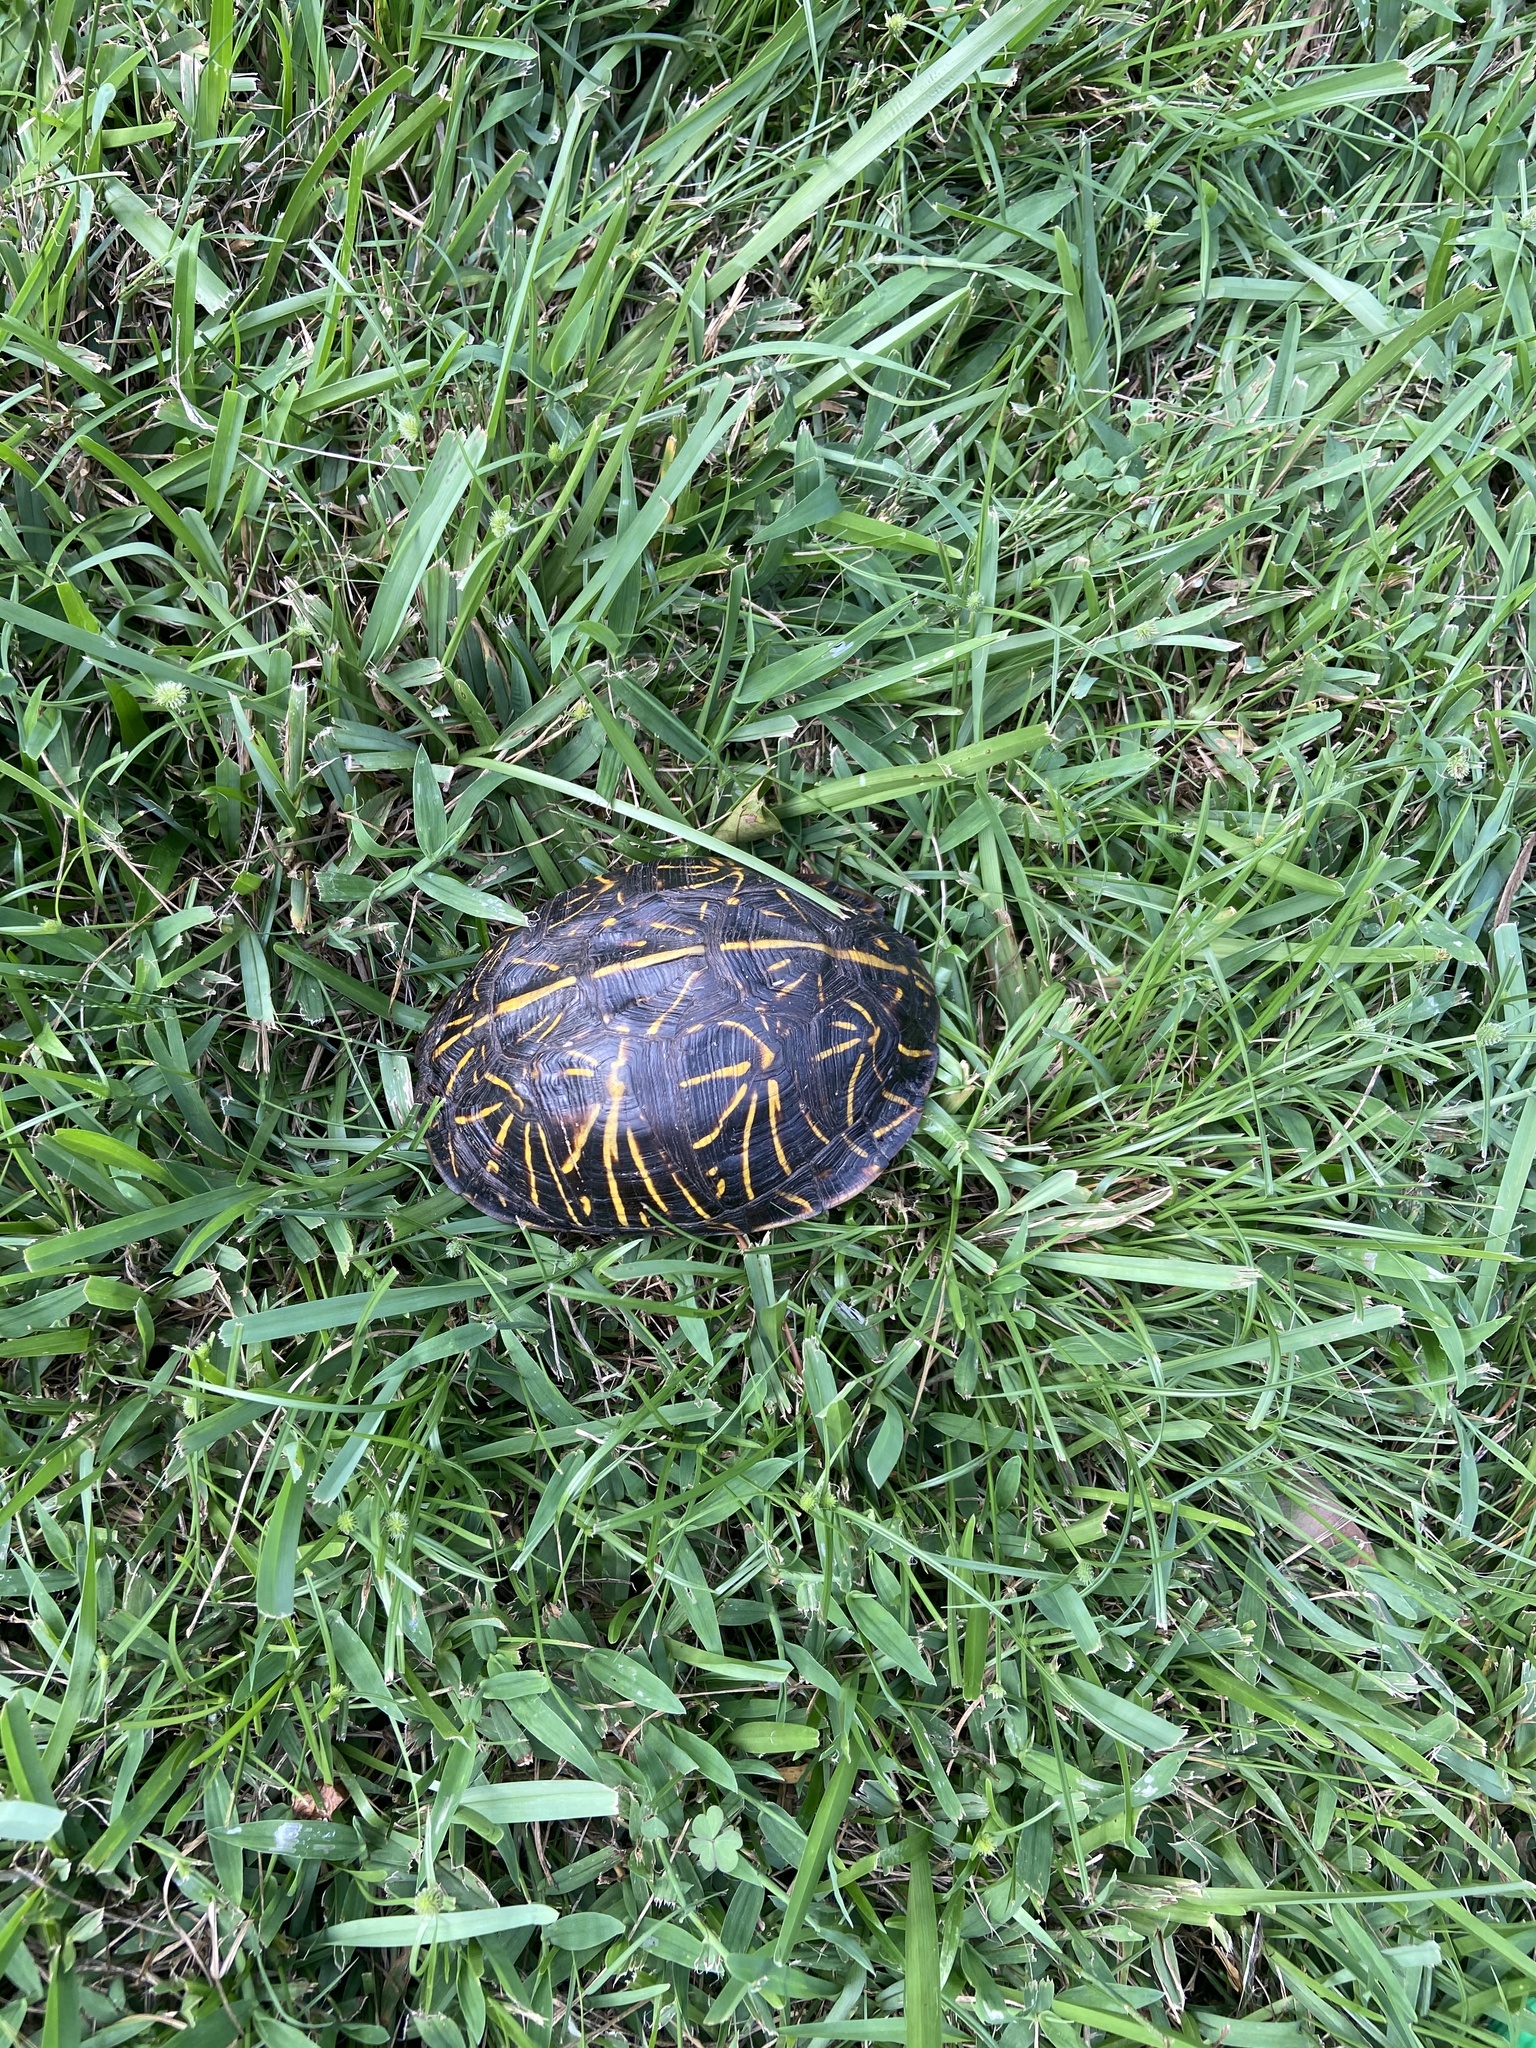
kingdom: Animalia
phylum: Chordata
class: Testudines
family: Emydidae
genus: Terrapene
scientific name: Terrapene carolina
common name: Common box turtle
